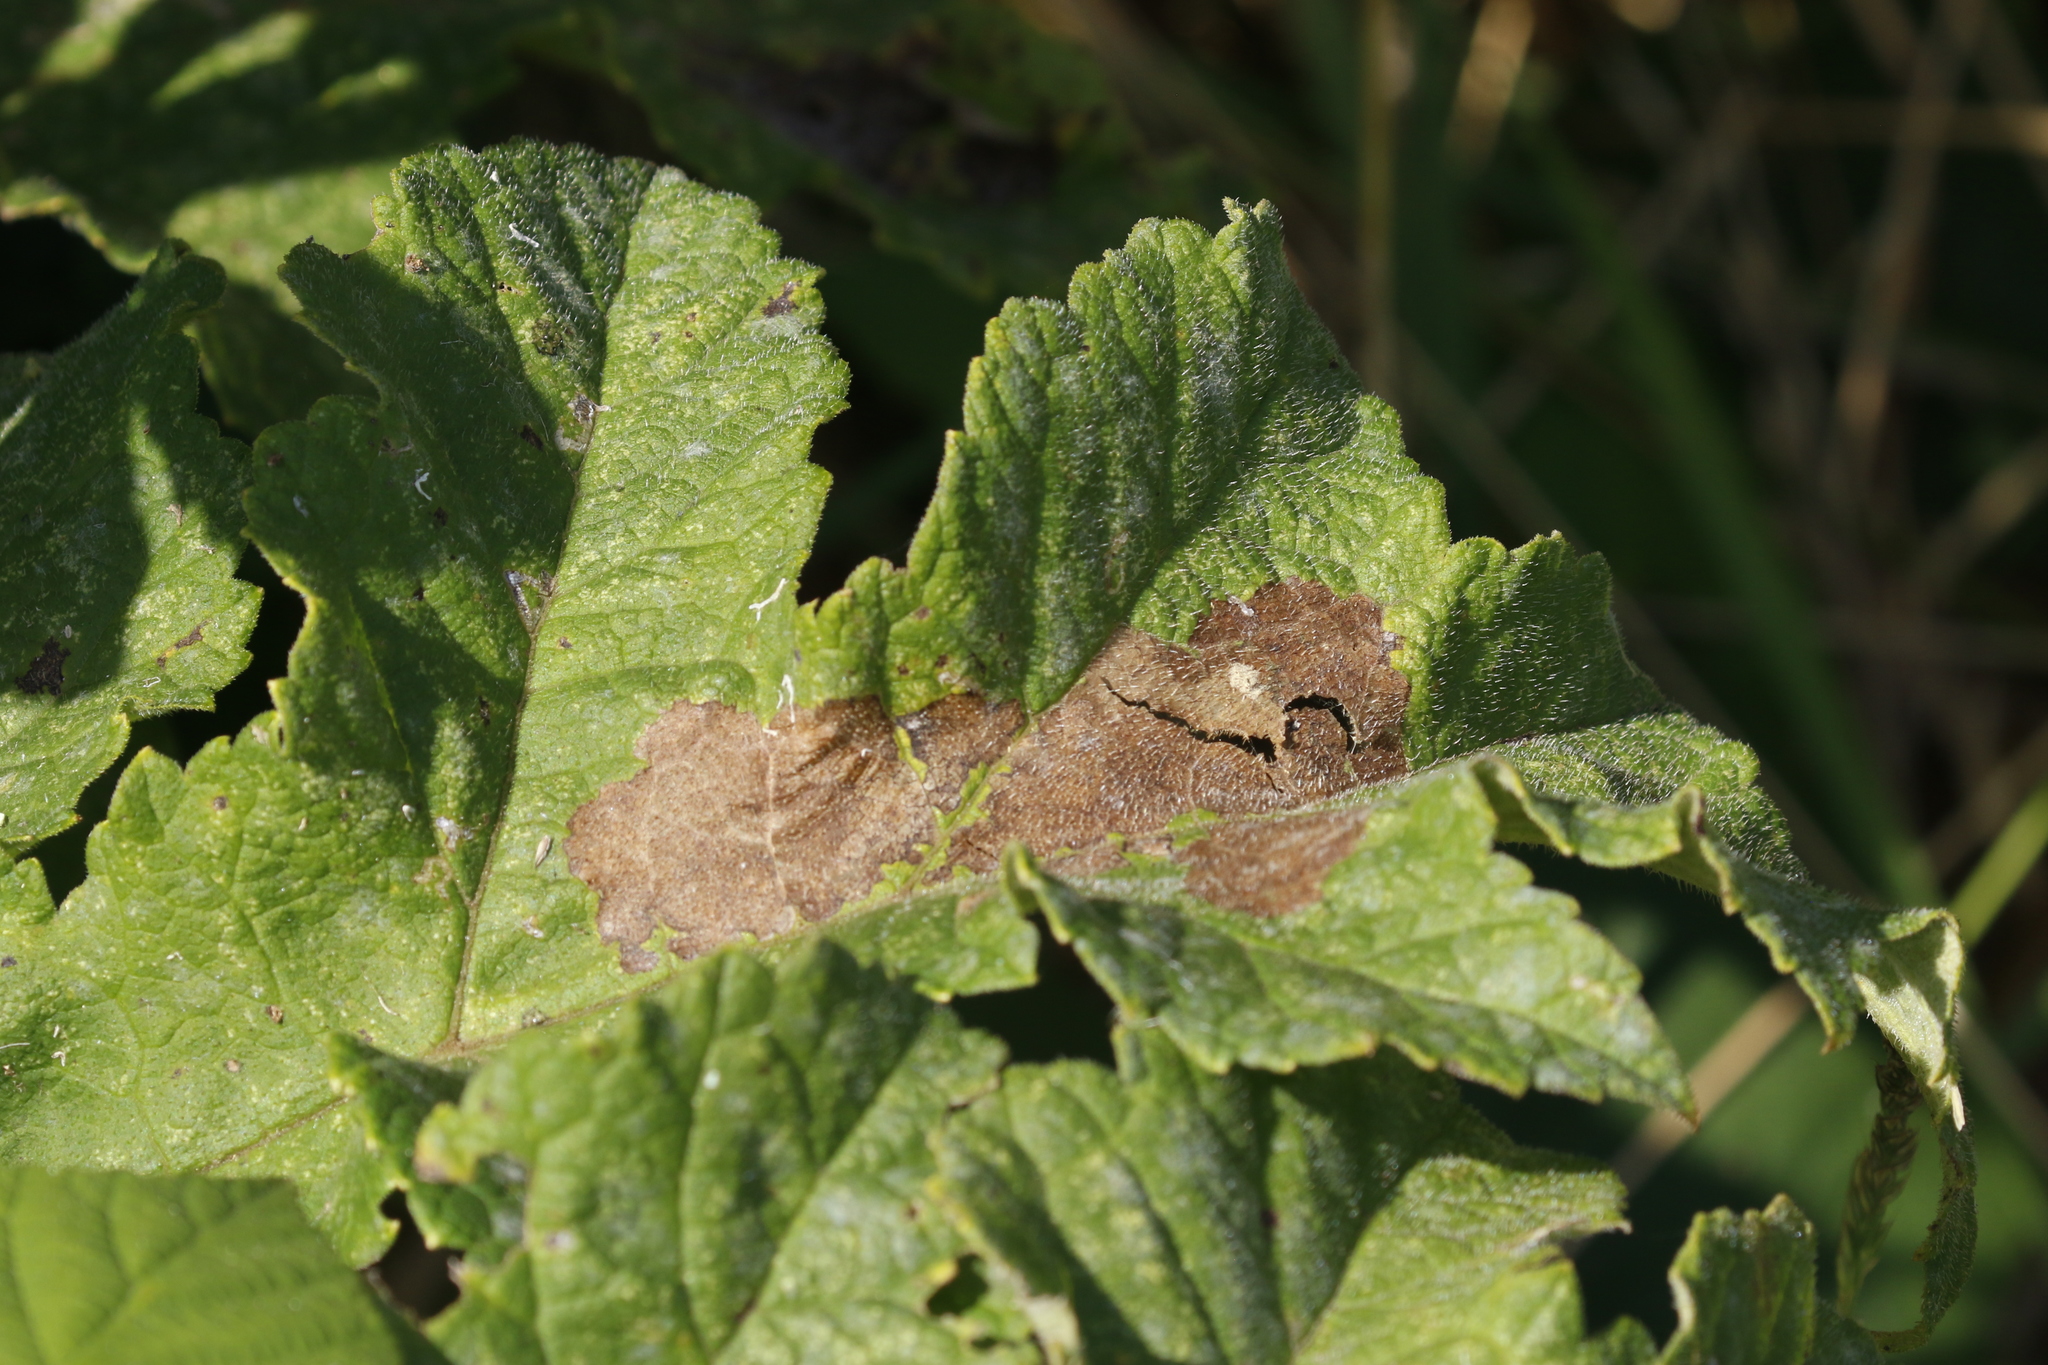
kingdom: Animalia
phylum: Arthropoda
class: Insecta
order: Lepidoptera
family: Epermeniidae
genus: Epermenia
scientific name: Epermenia chaerophyllellus
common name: Garden lance-wing
